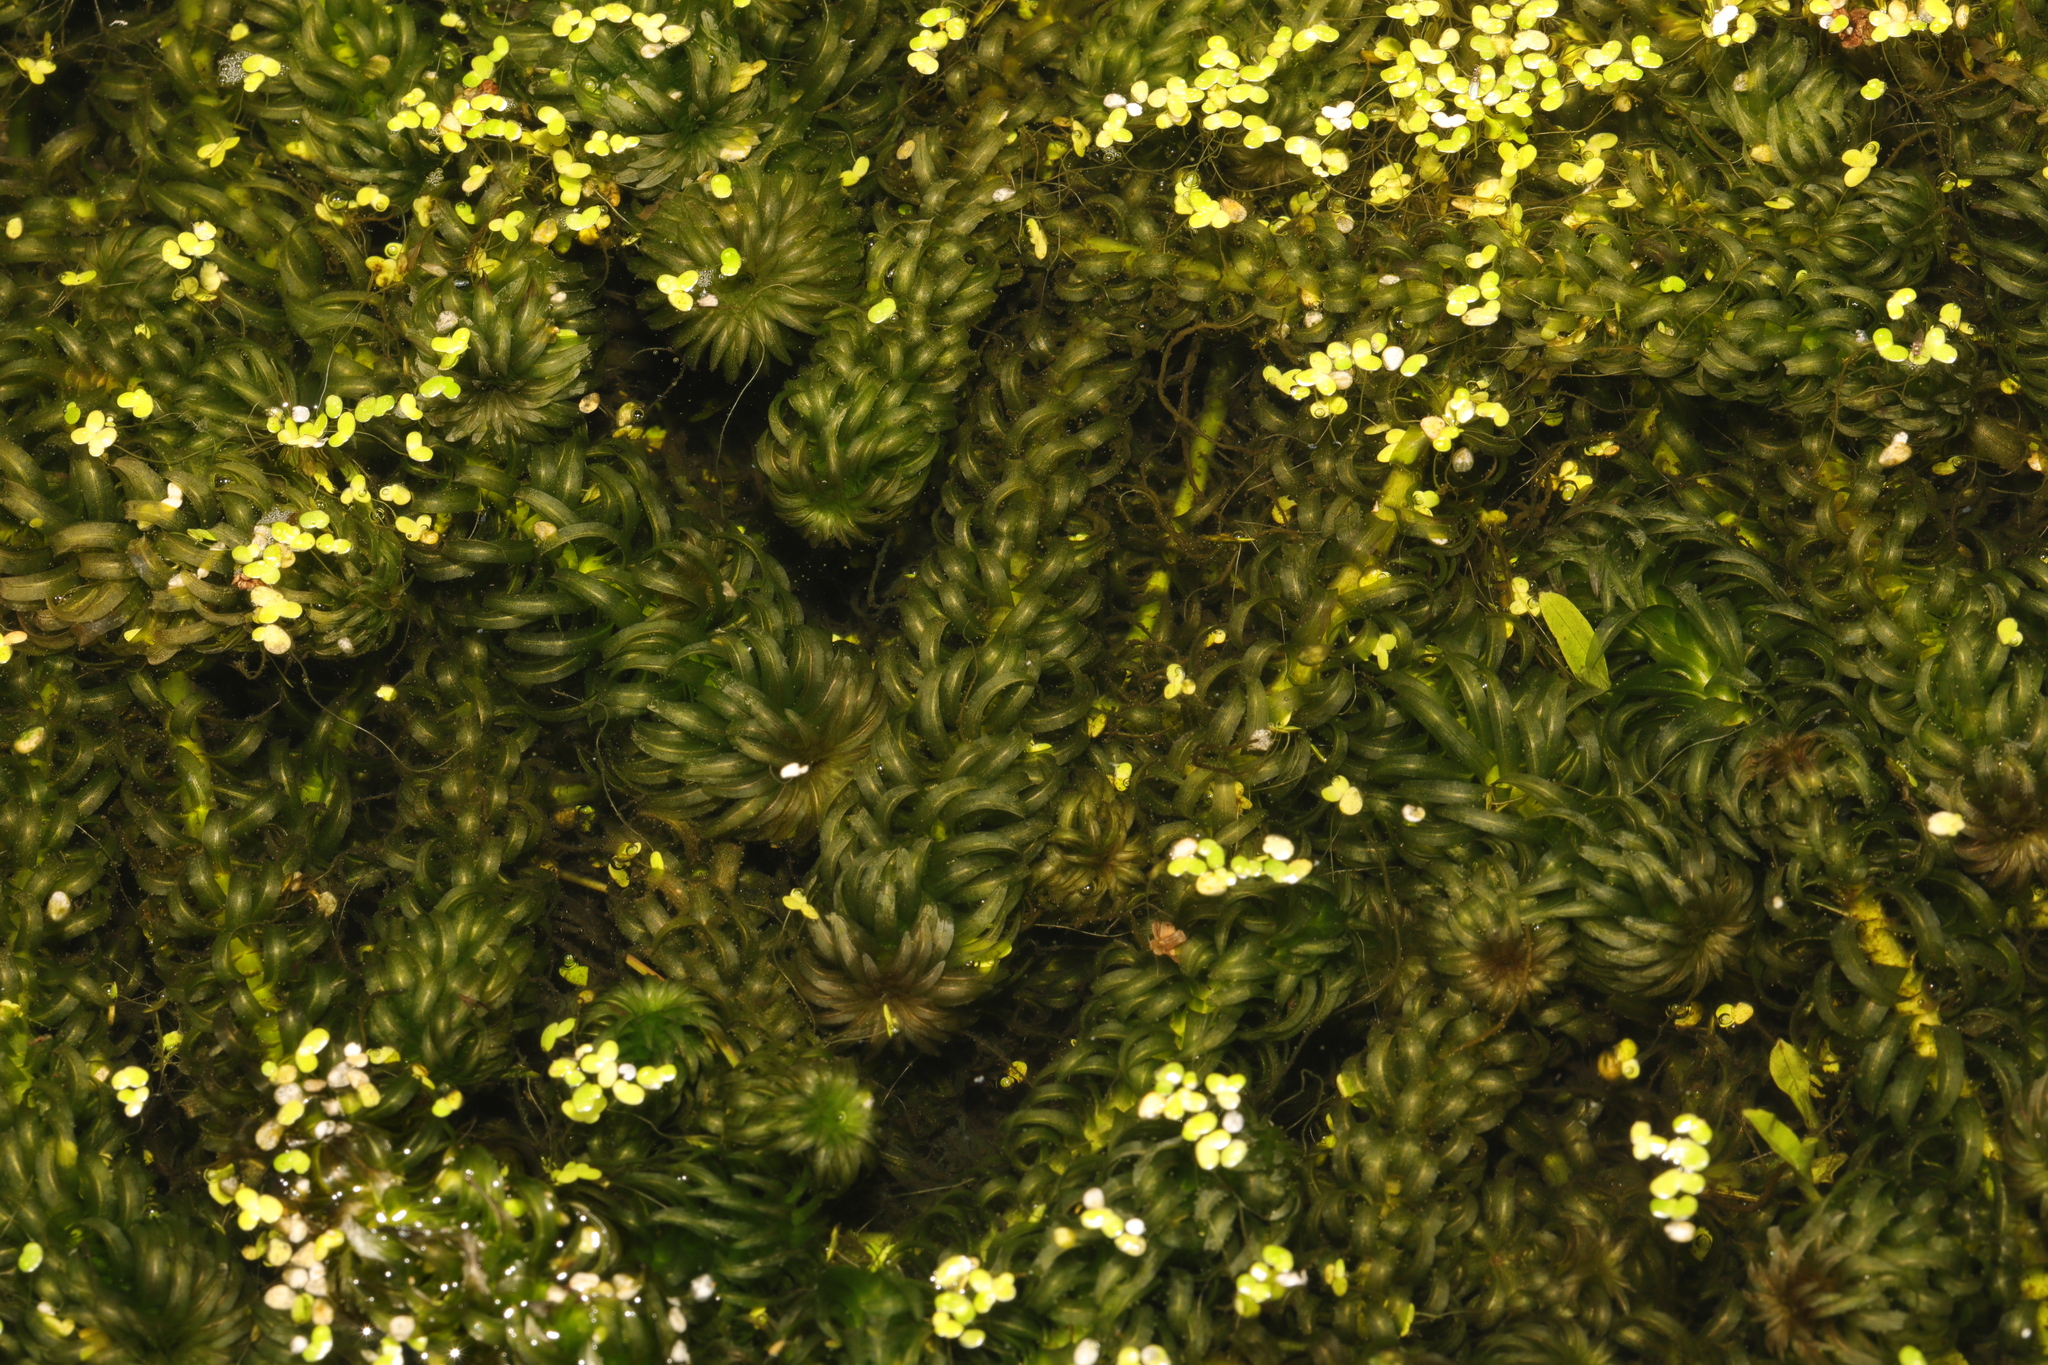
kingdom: Plantae
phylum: Tracheophyta
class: Liliopsida
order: Alismatales
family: Hydrocharitaceae
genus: Lagarosiphon
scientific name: Lagarosiphon major
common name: Curly waterweed
